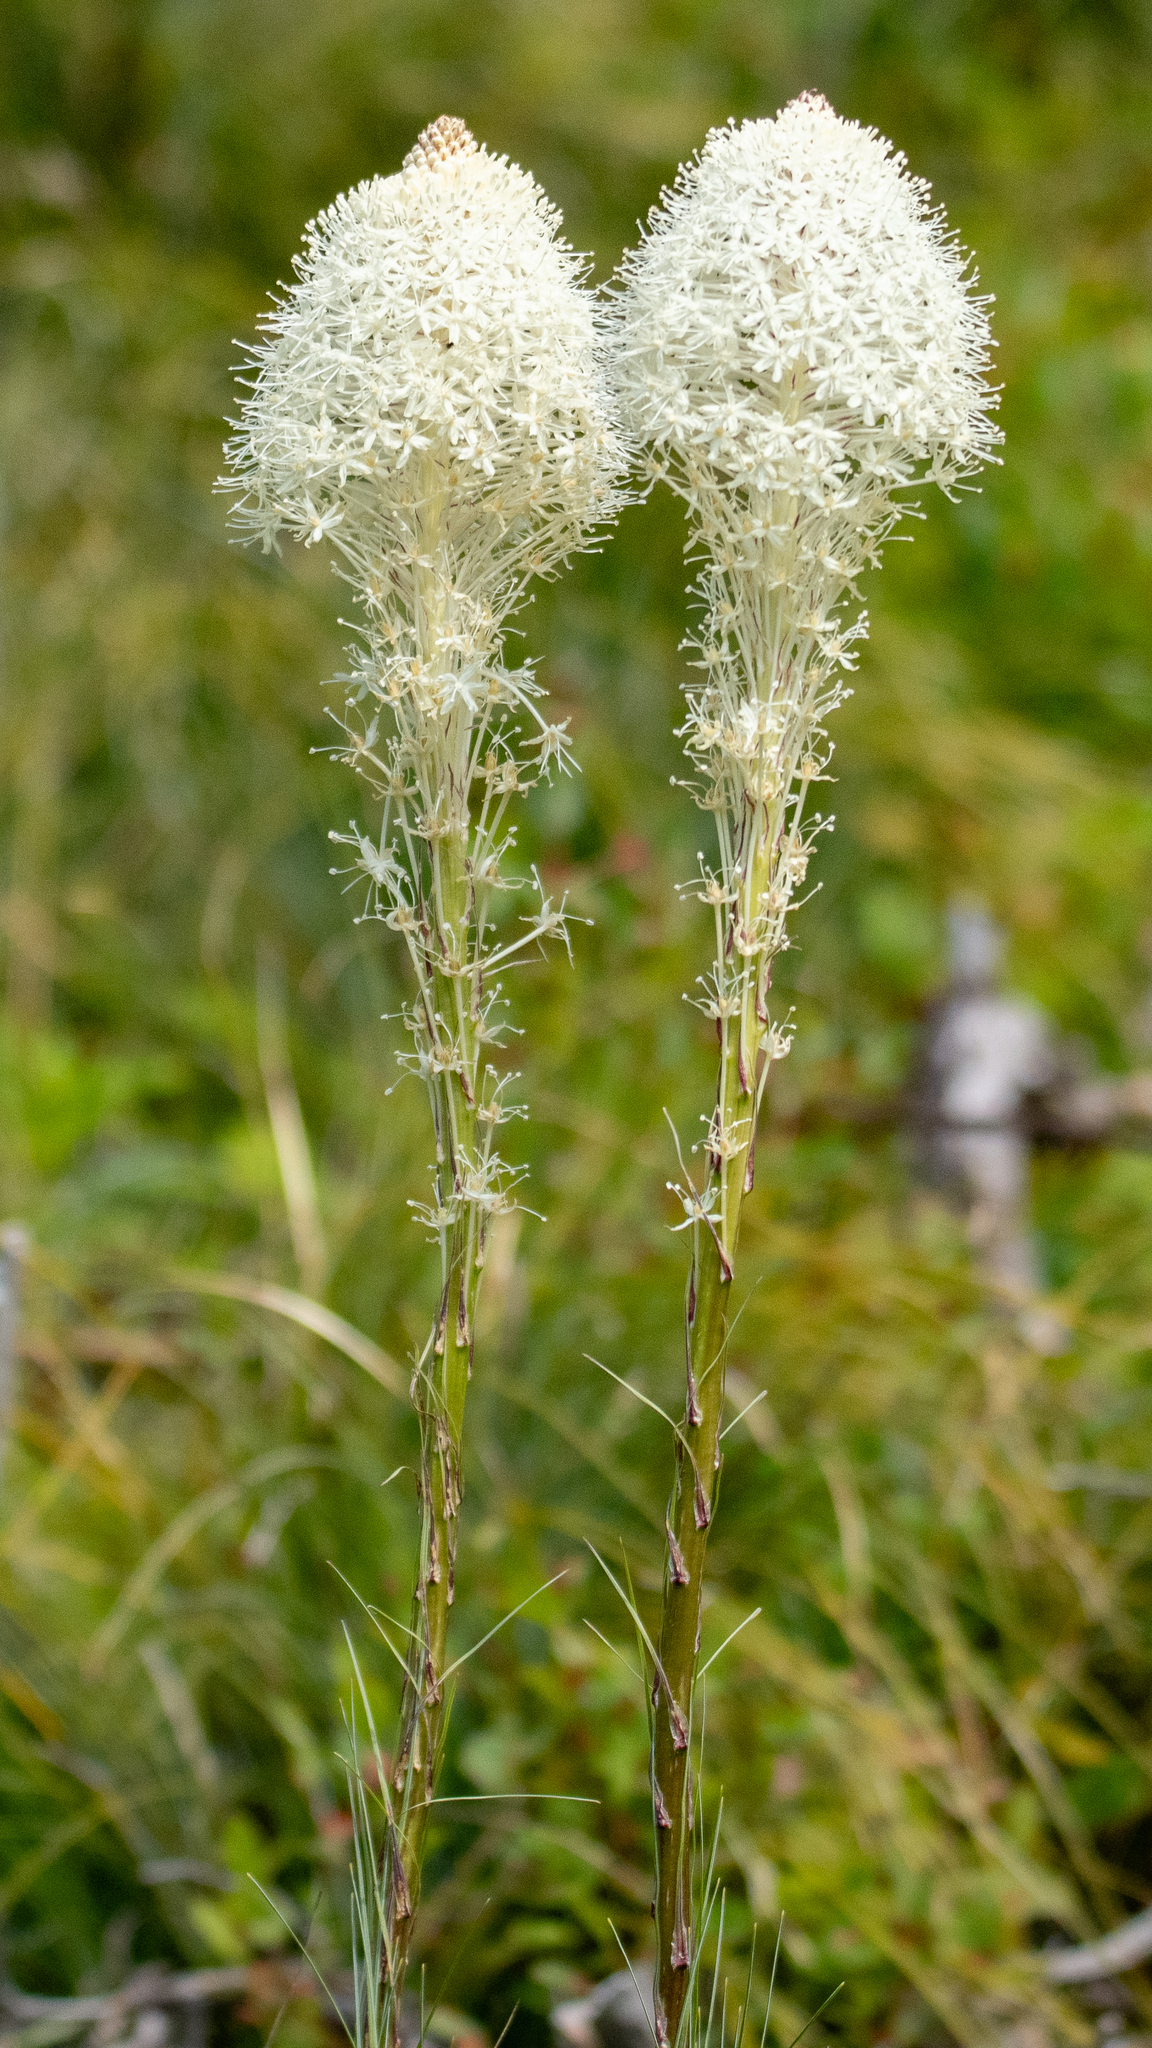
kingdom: Plantae
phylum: Tracheophyta
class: Liliopsida
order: Liliales
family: Melanthiaceae
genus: Xerophyllum
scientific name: Xerophyllum tenax
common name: Bear-grass
